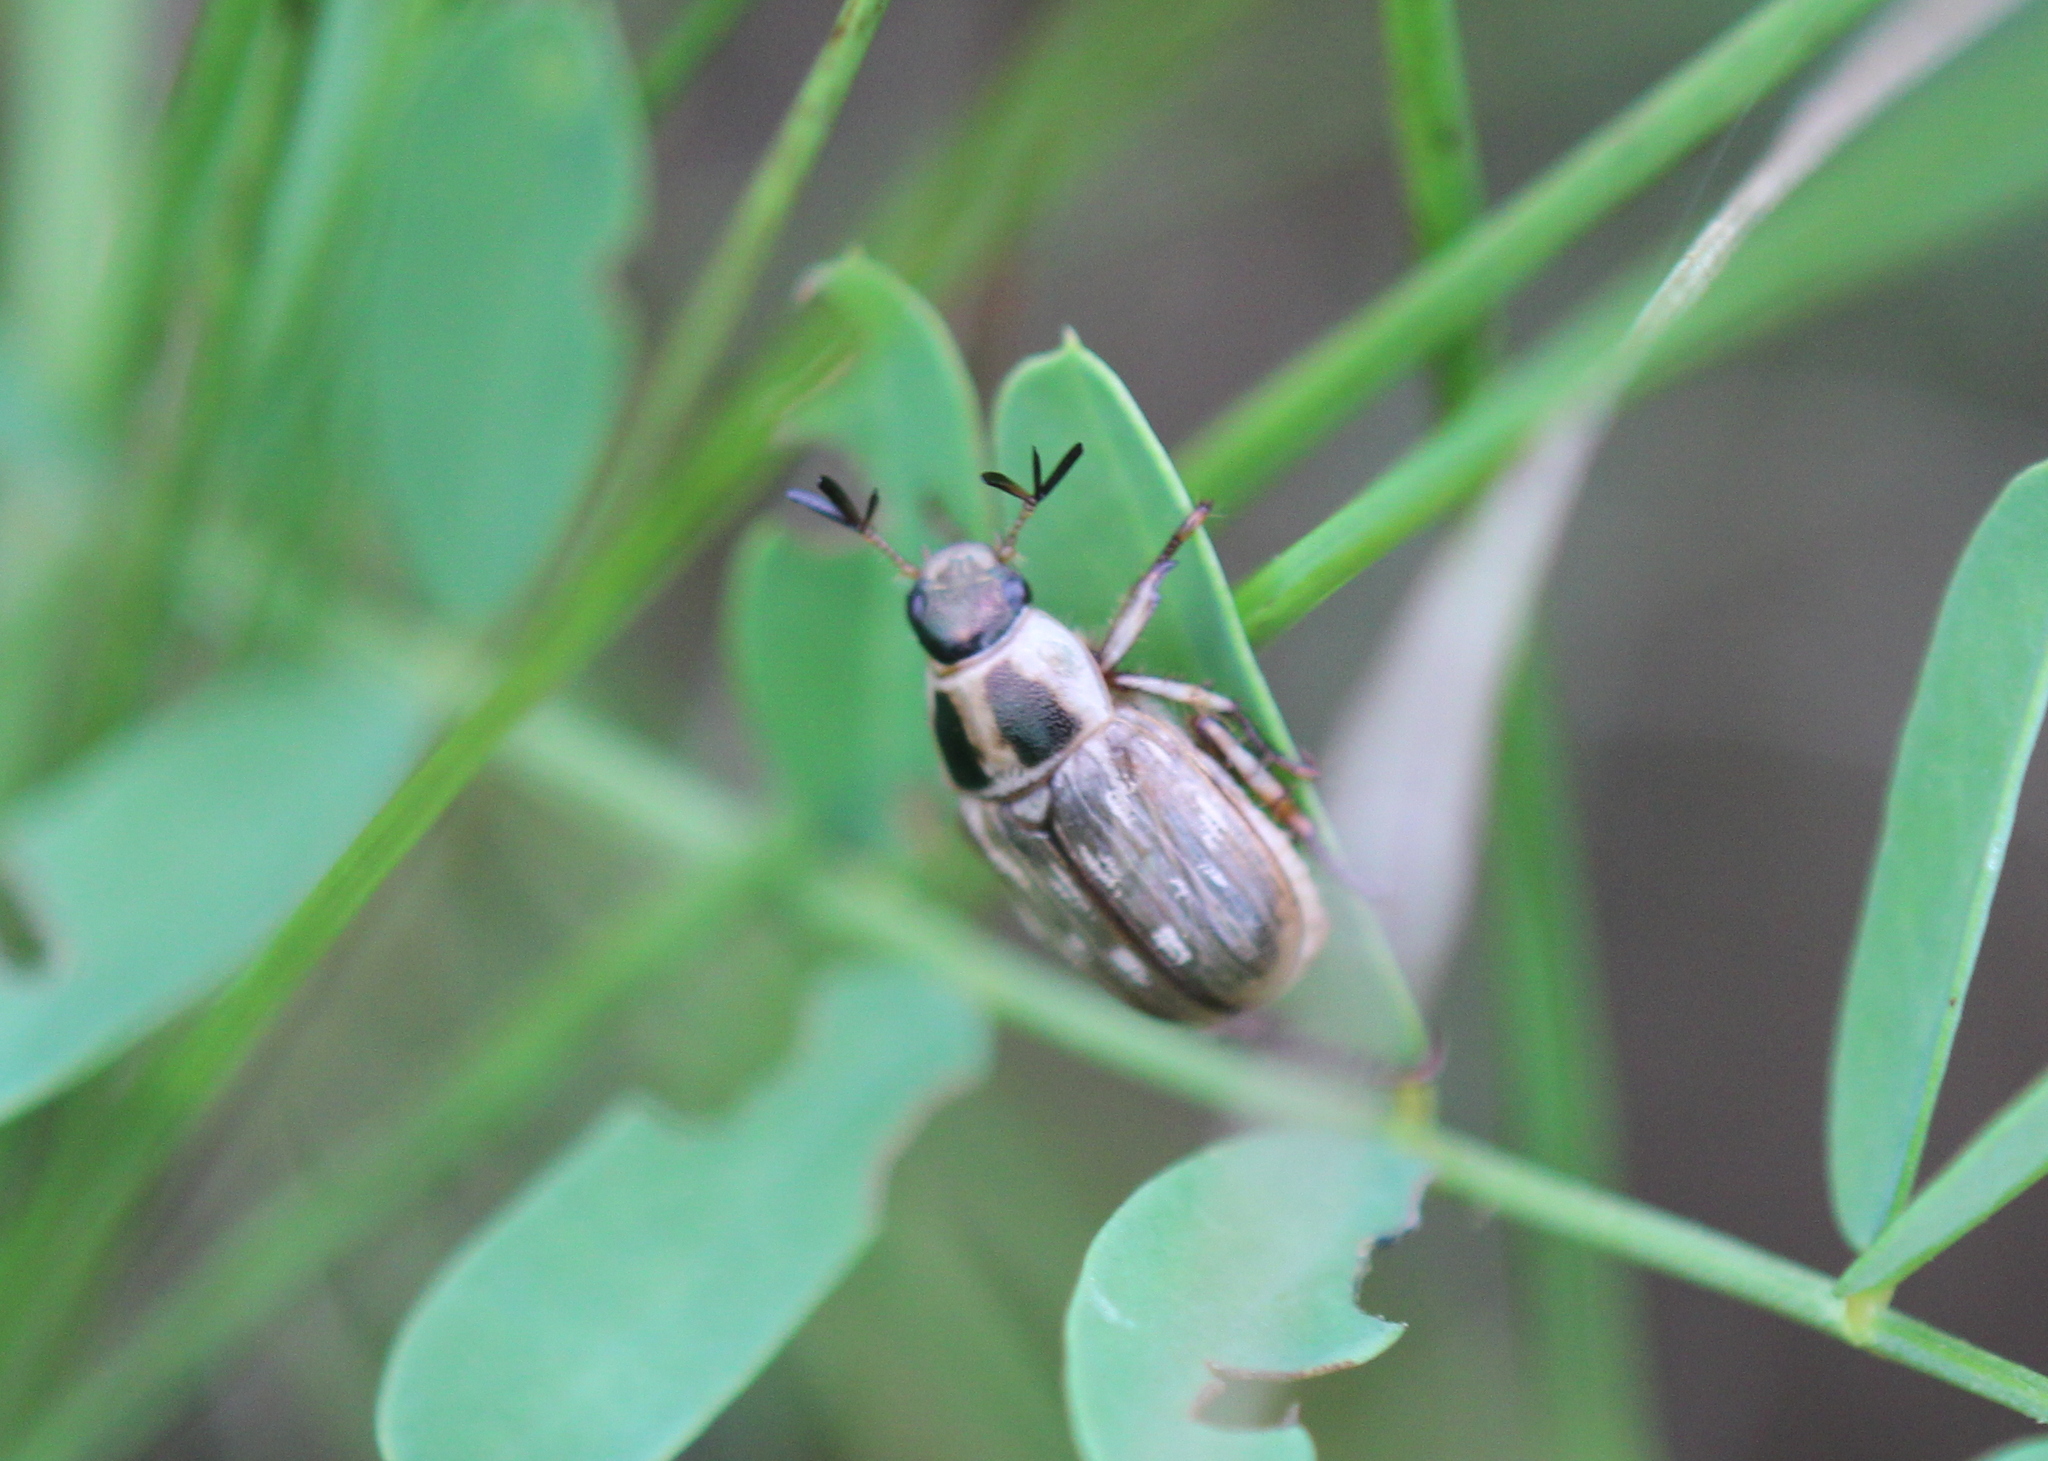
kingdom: Animalia
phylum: Arthropoda
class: Insecta
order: Coleoptera
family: Scarabaeidae
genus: Exomala
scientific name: Exomala orientalis
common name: Oriental beetle
